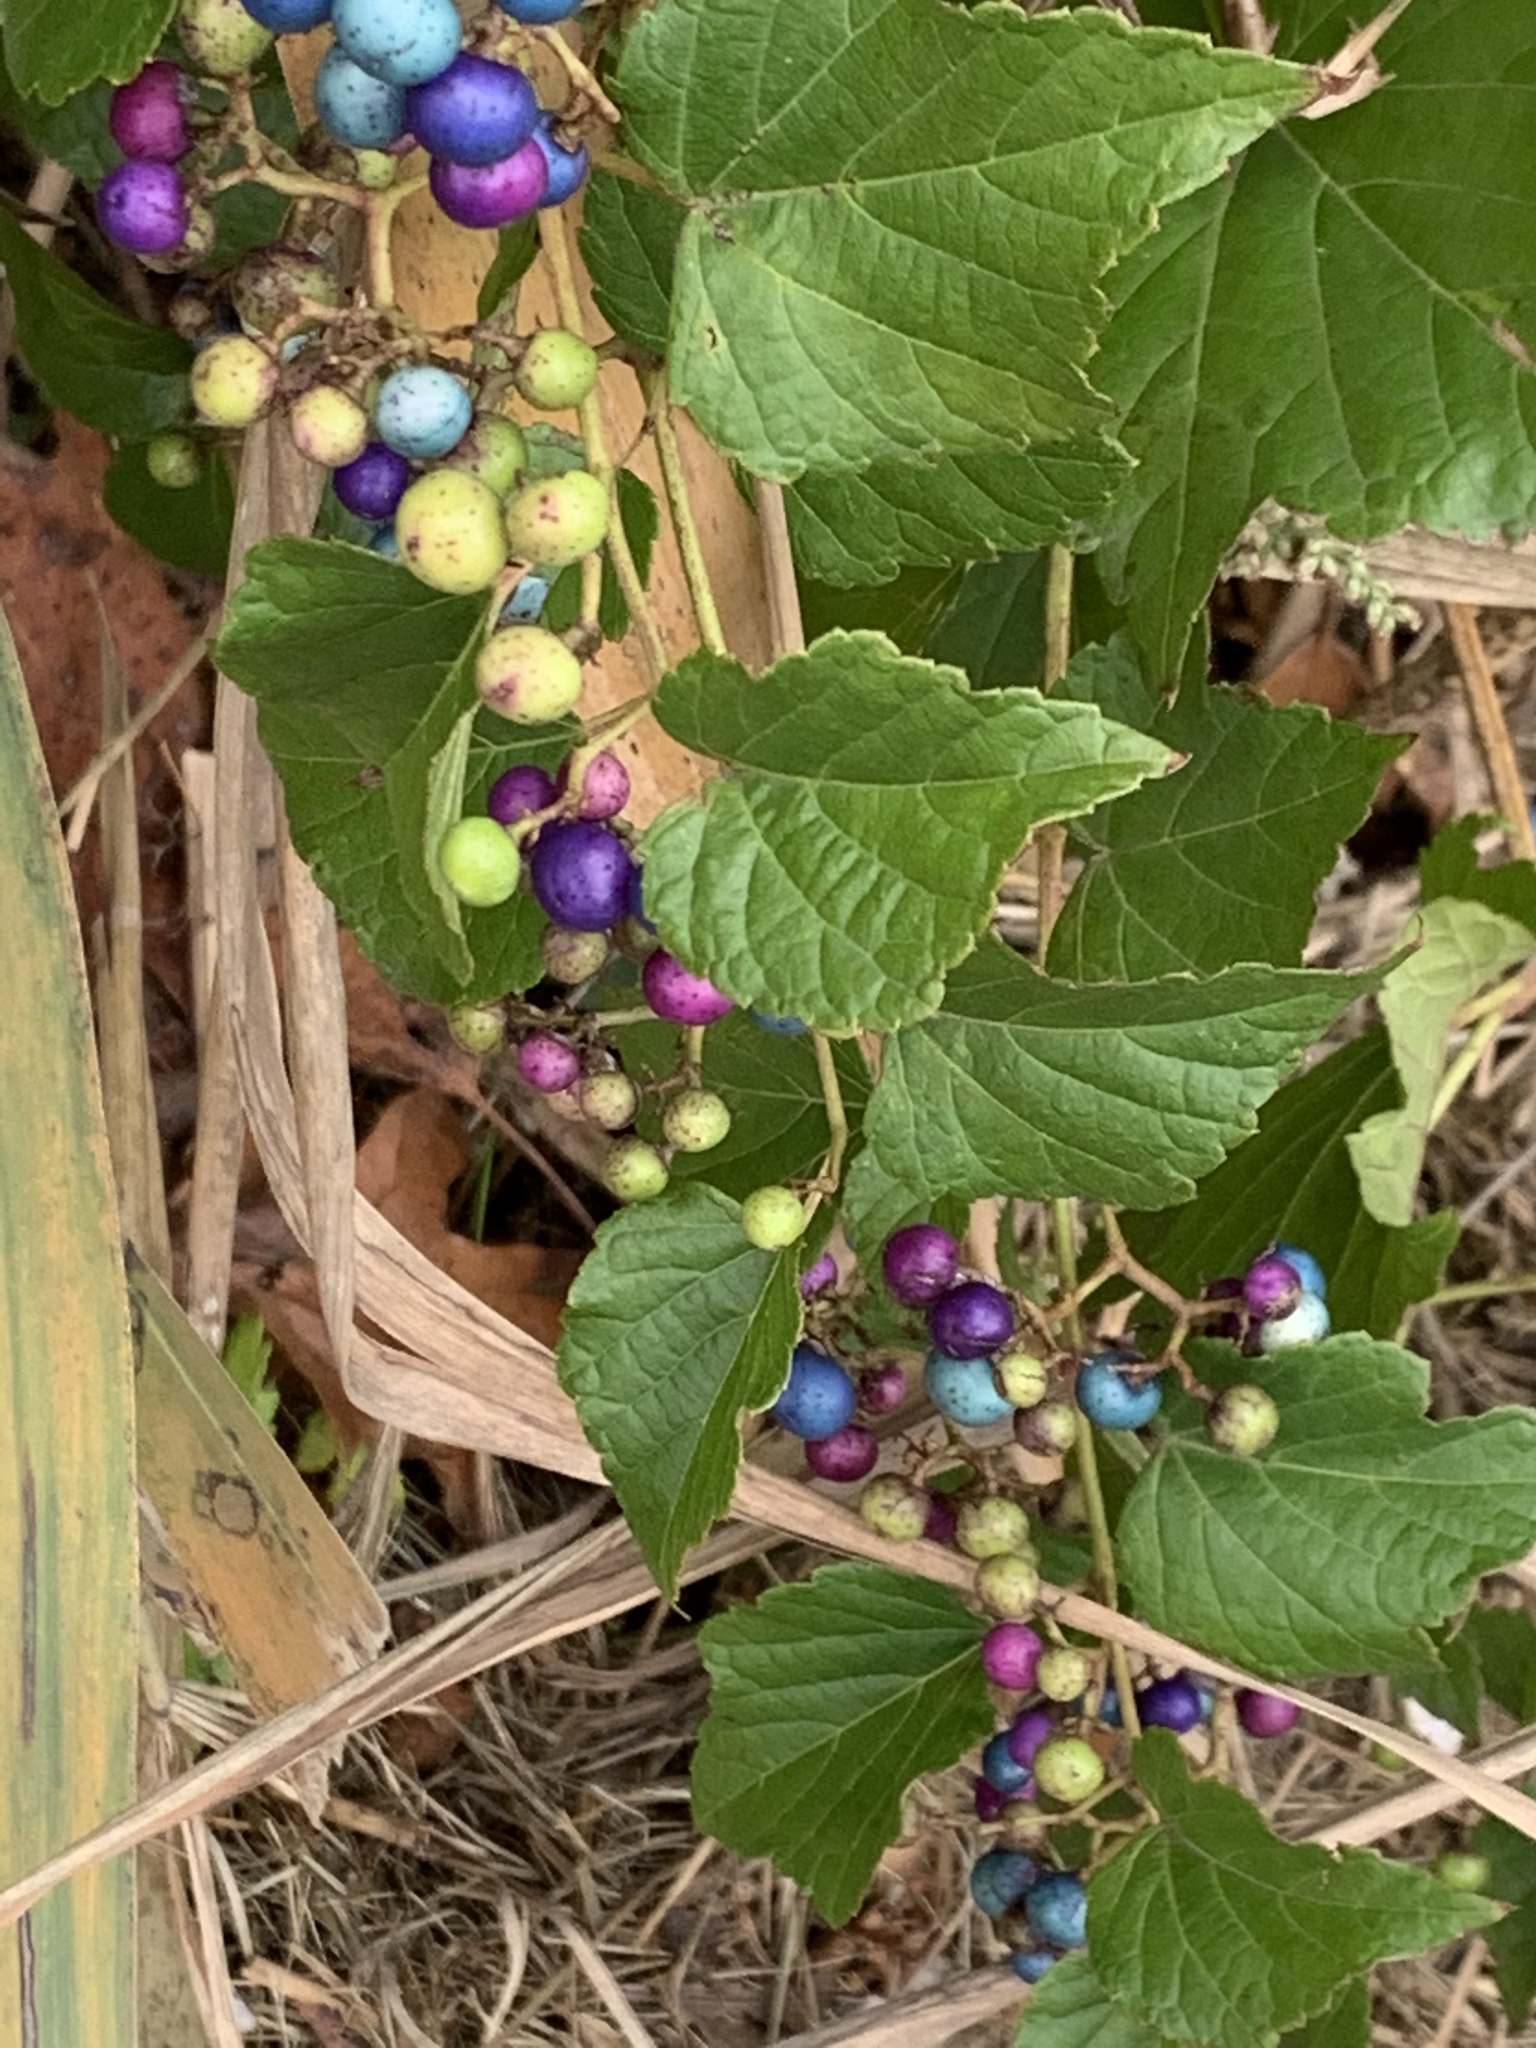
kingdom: Plantae
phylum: Tracheophyta
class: Magnoliopsida
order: Vitales
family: Vitaceae
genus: Ampelopsis
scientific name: Ampelopsis glandulosa
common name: Amur peppervine
